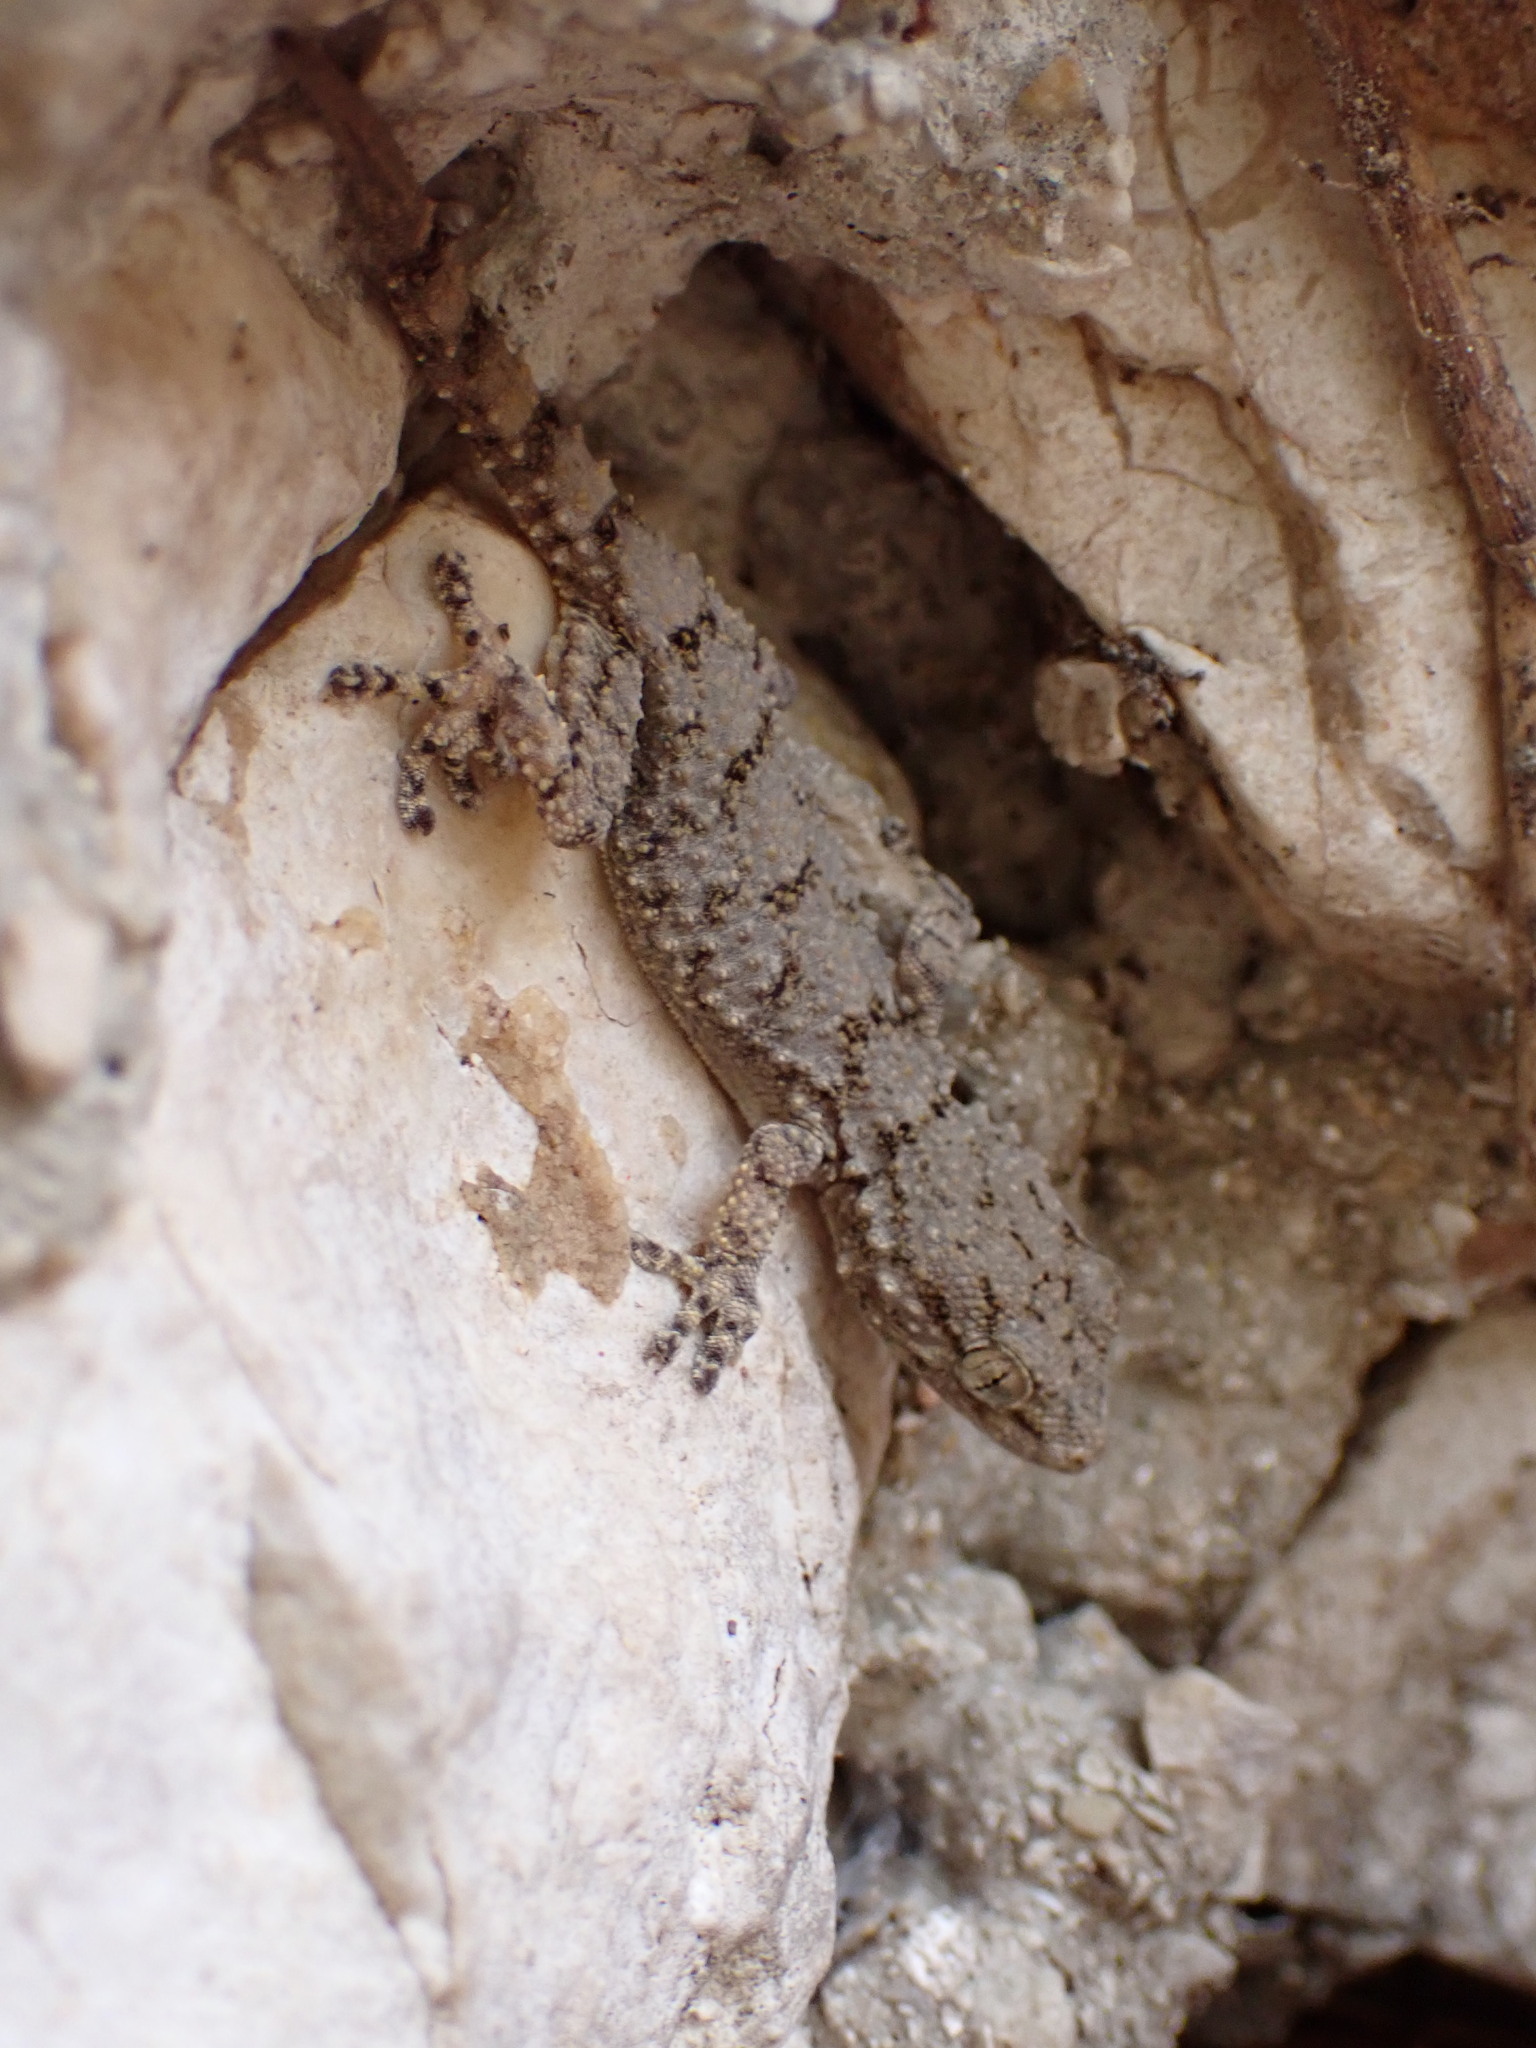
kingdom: Animalia
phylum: Chordata
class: Squamata
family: Phyllodactylidae
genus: Tarentola
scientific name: Tarentola mauritanica
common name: Moorish gecko
